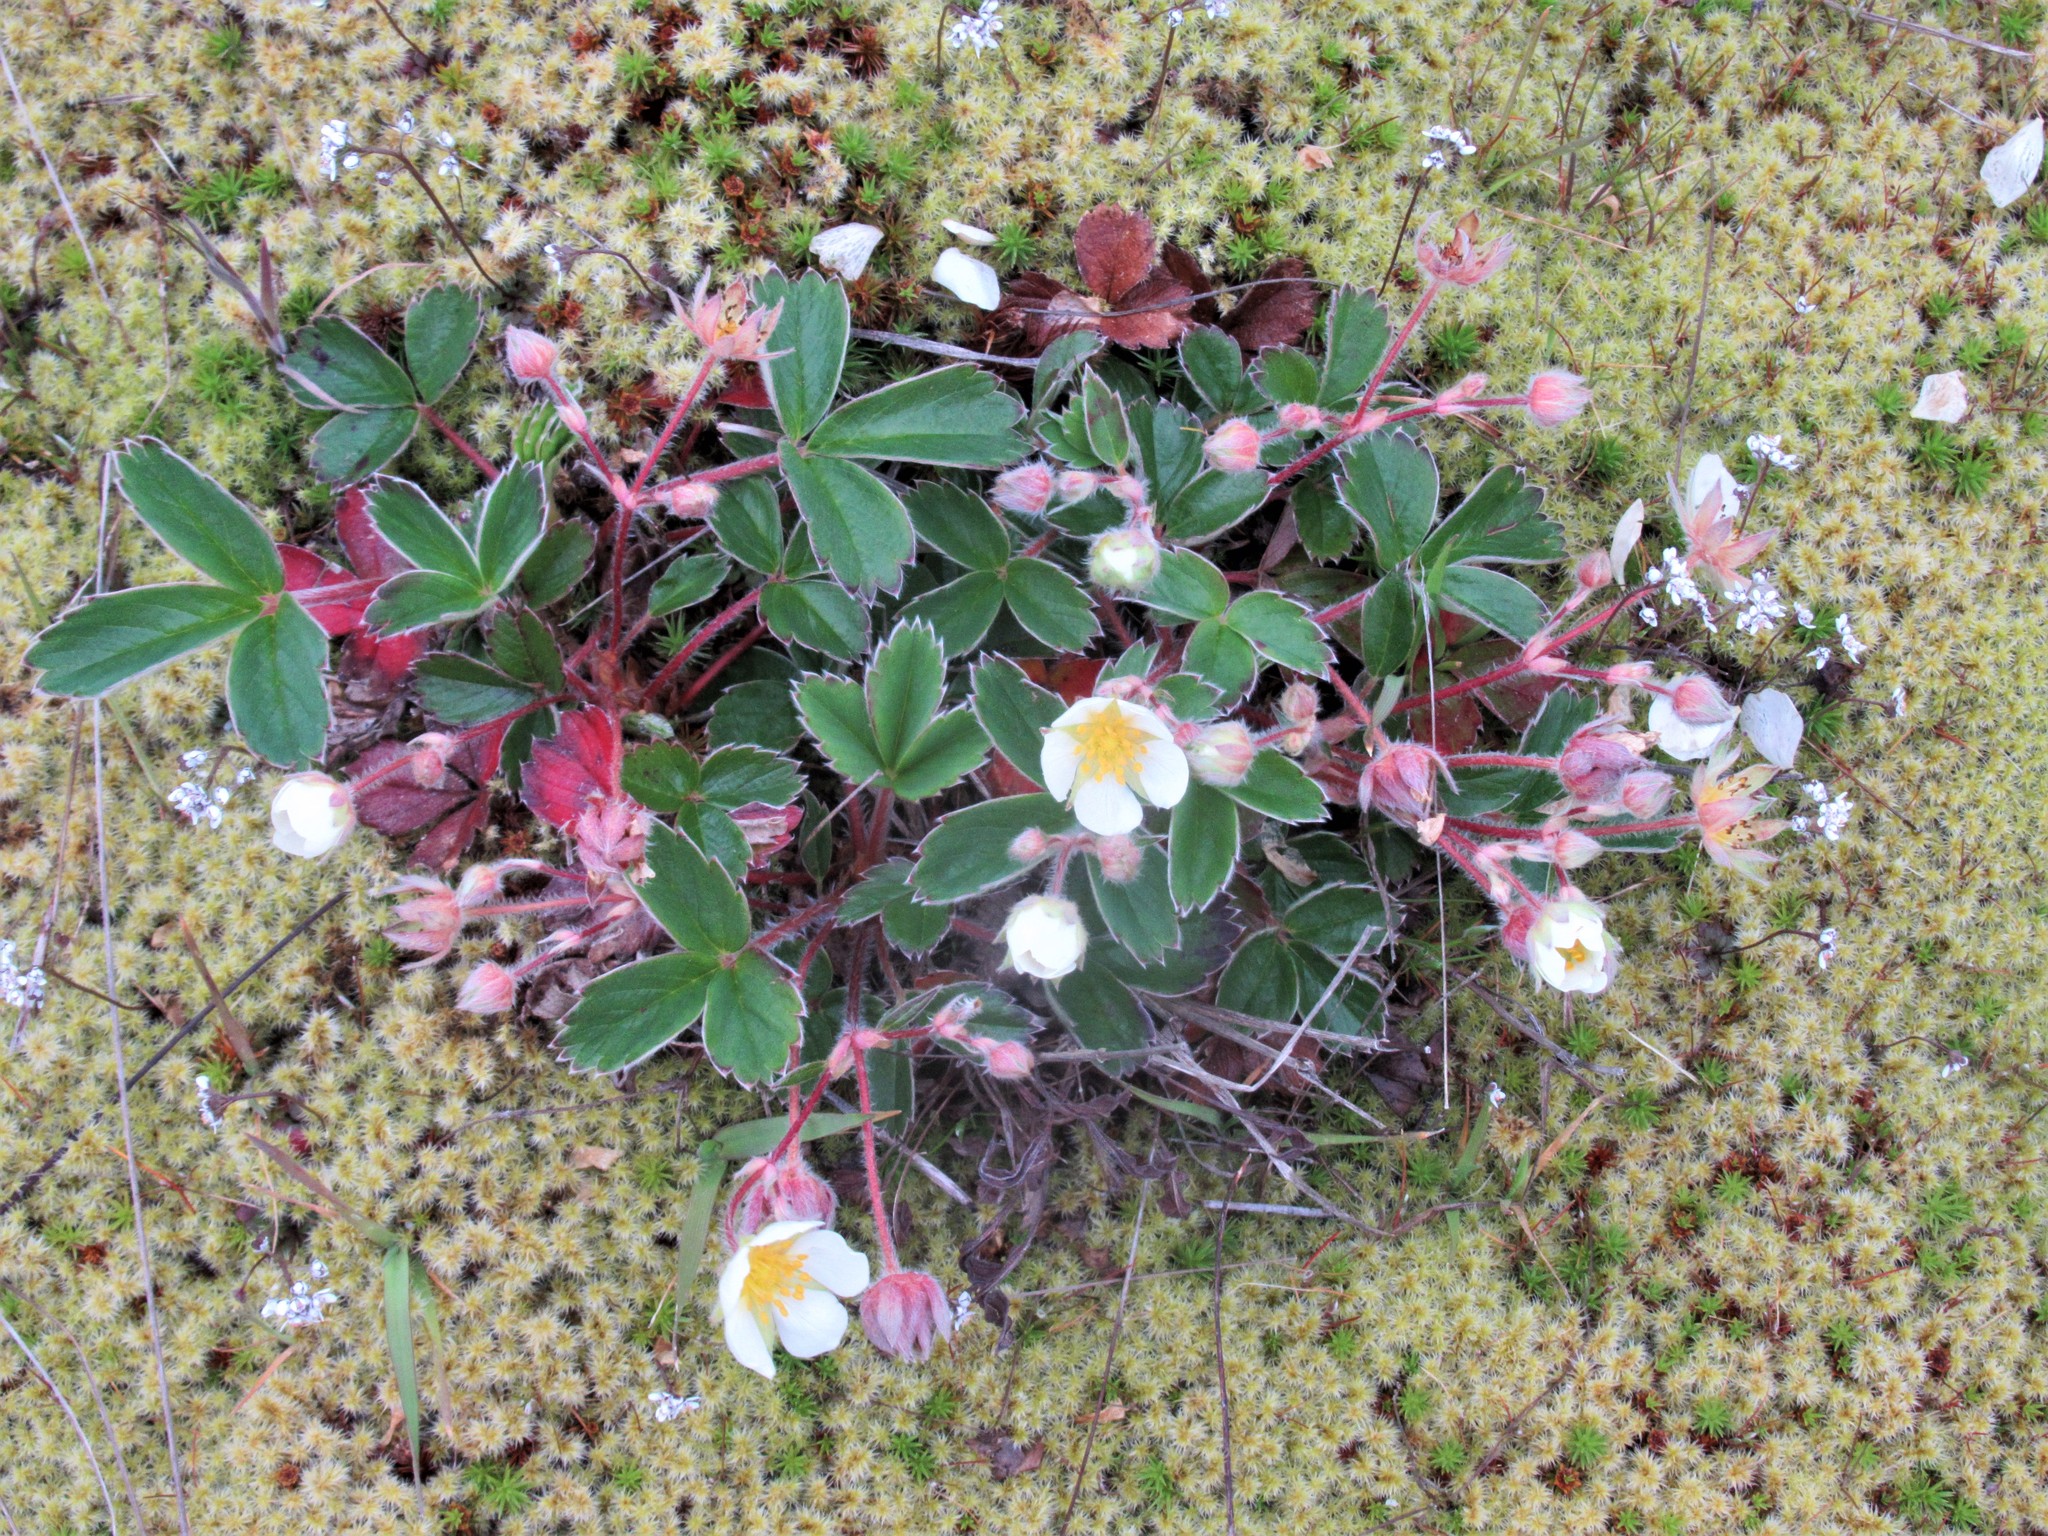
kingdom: Plantae
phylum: Tracheophyta
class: Magnoliopsida
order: Rosales
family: Rosaceae
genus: Fragaria
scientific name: Fragaria chiloensis
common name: Beach strawberry
